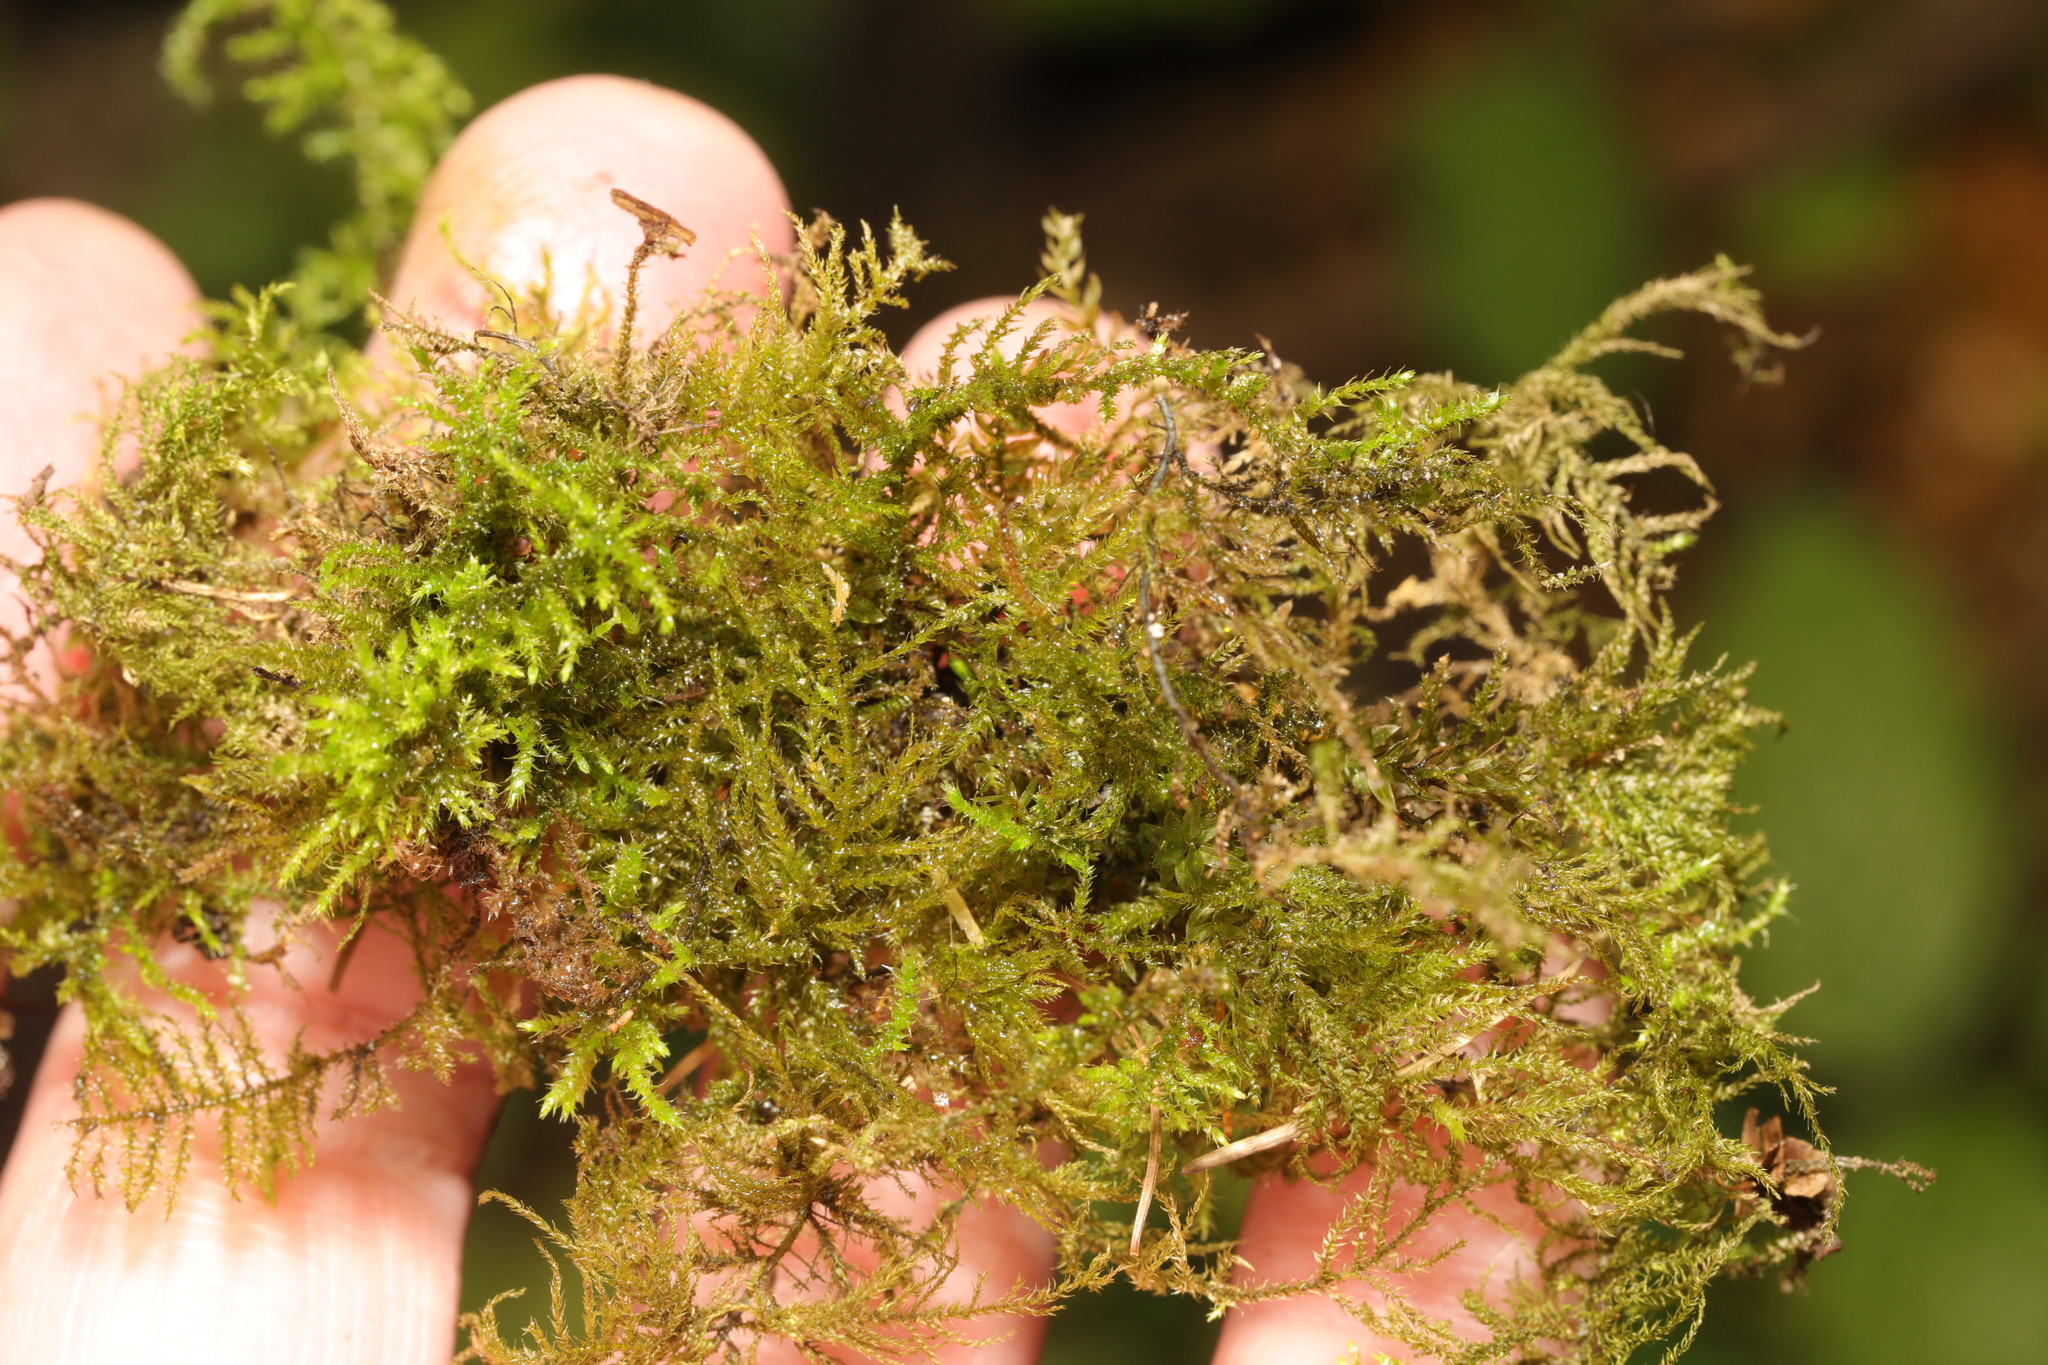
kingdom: Plantae
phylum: Bryophyta
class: Bryopsida
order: Hypnales
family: Brachytheciaceae
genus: Kindbergia
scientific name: Kindbergia praelonga
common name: Slender beaked moss
